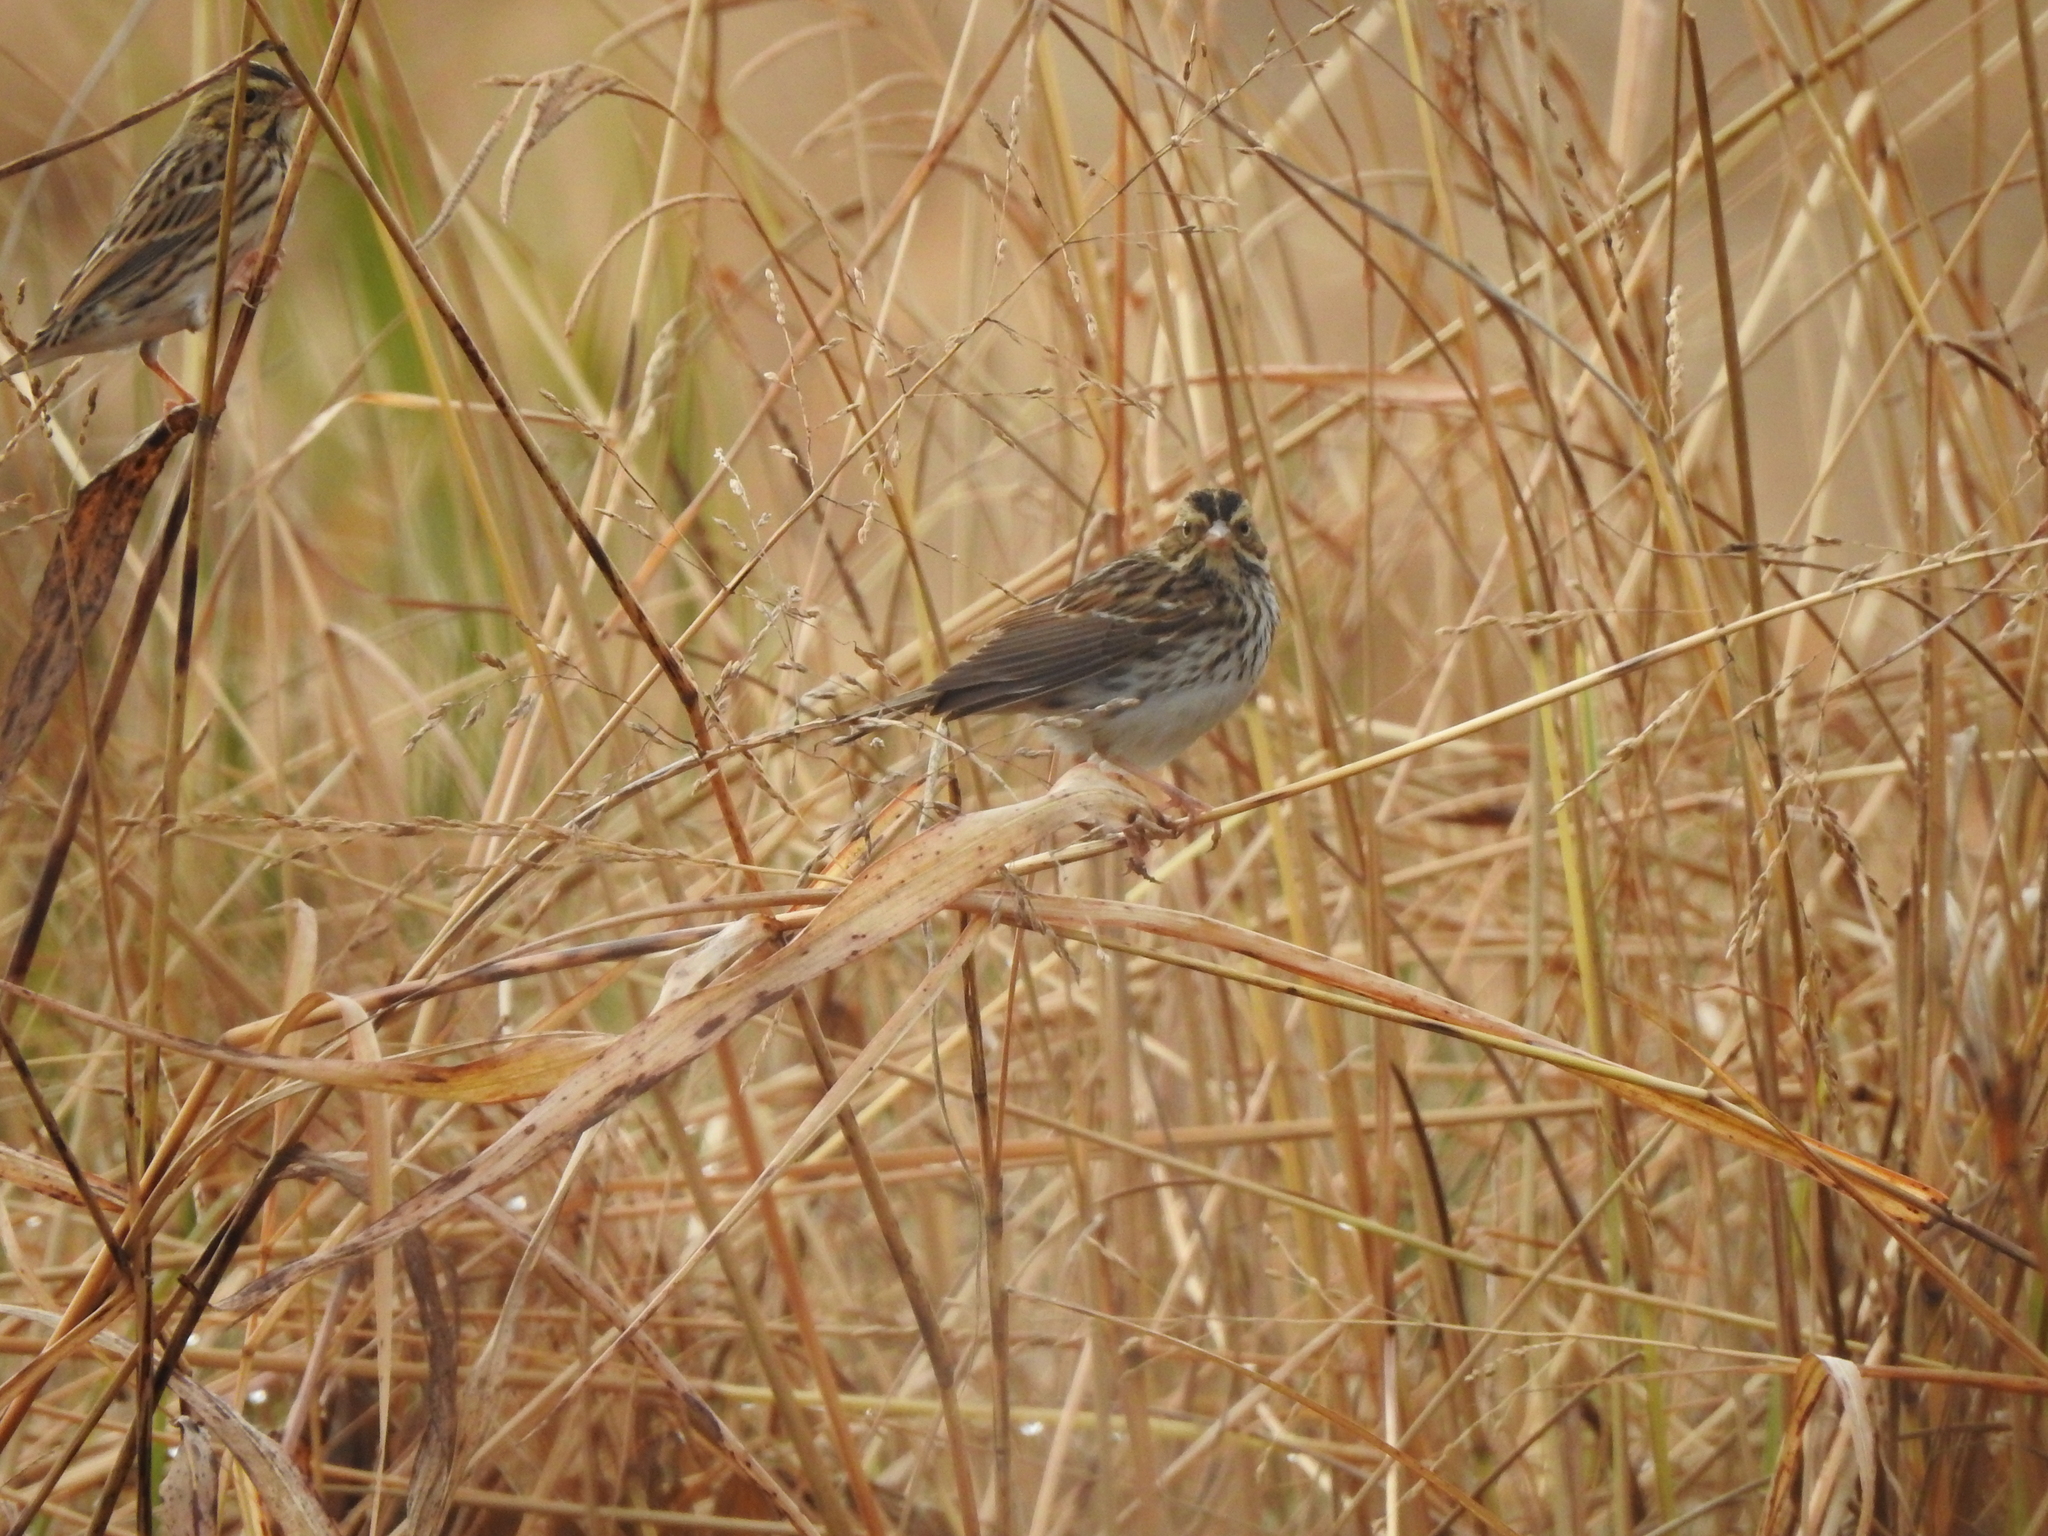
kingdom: Animalia
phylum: Chordata
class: Aves
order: Passeriformes
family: Passerellidae
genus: Passerculus
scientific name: Passerculus sandwichensis
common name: Savannah sparrow
